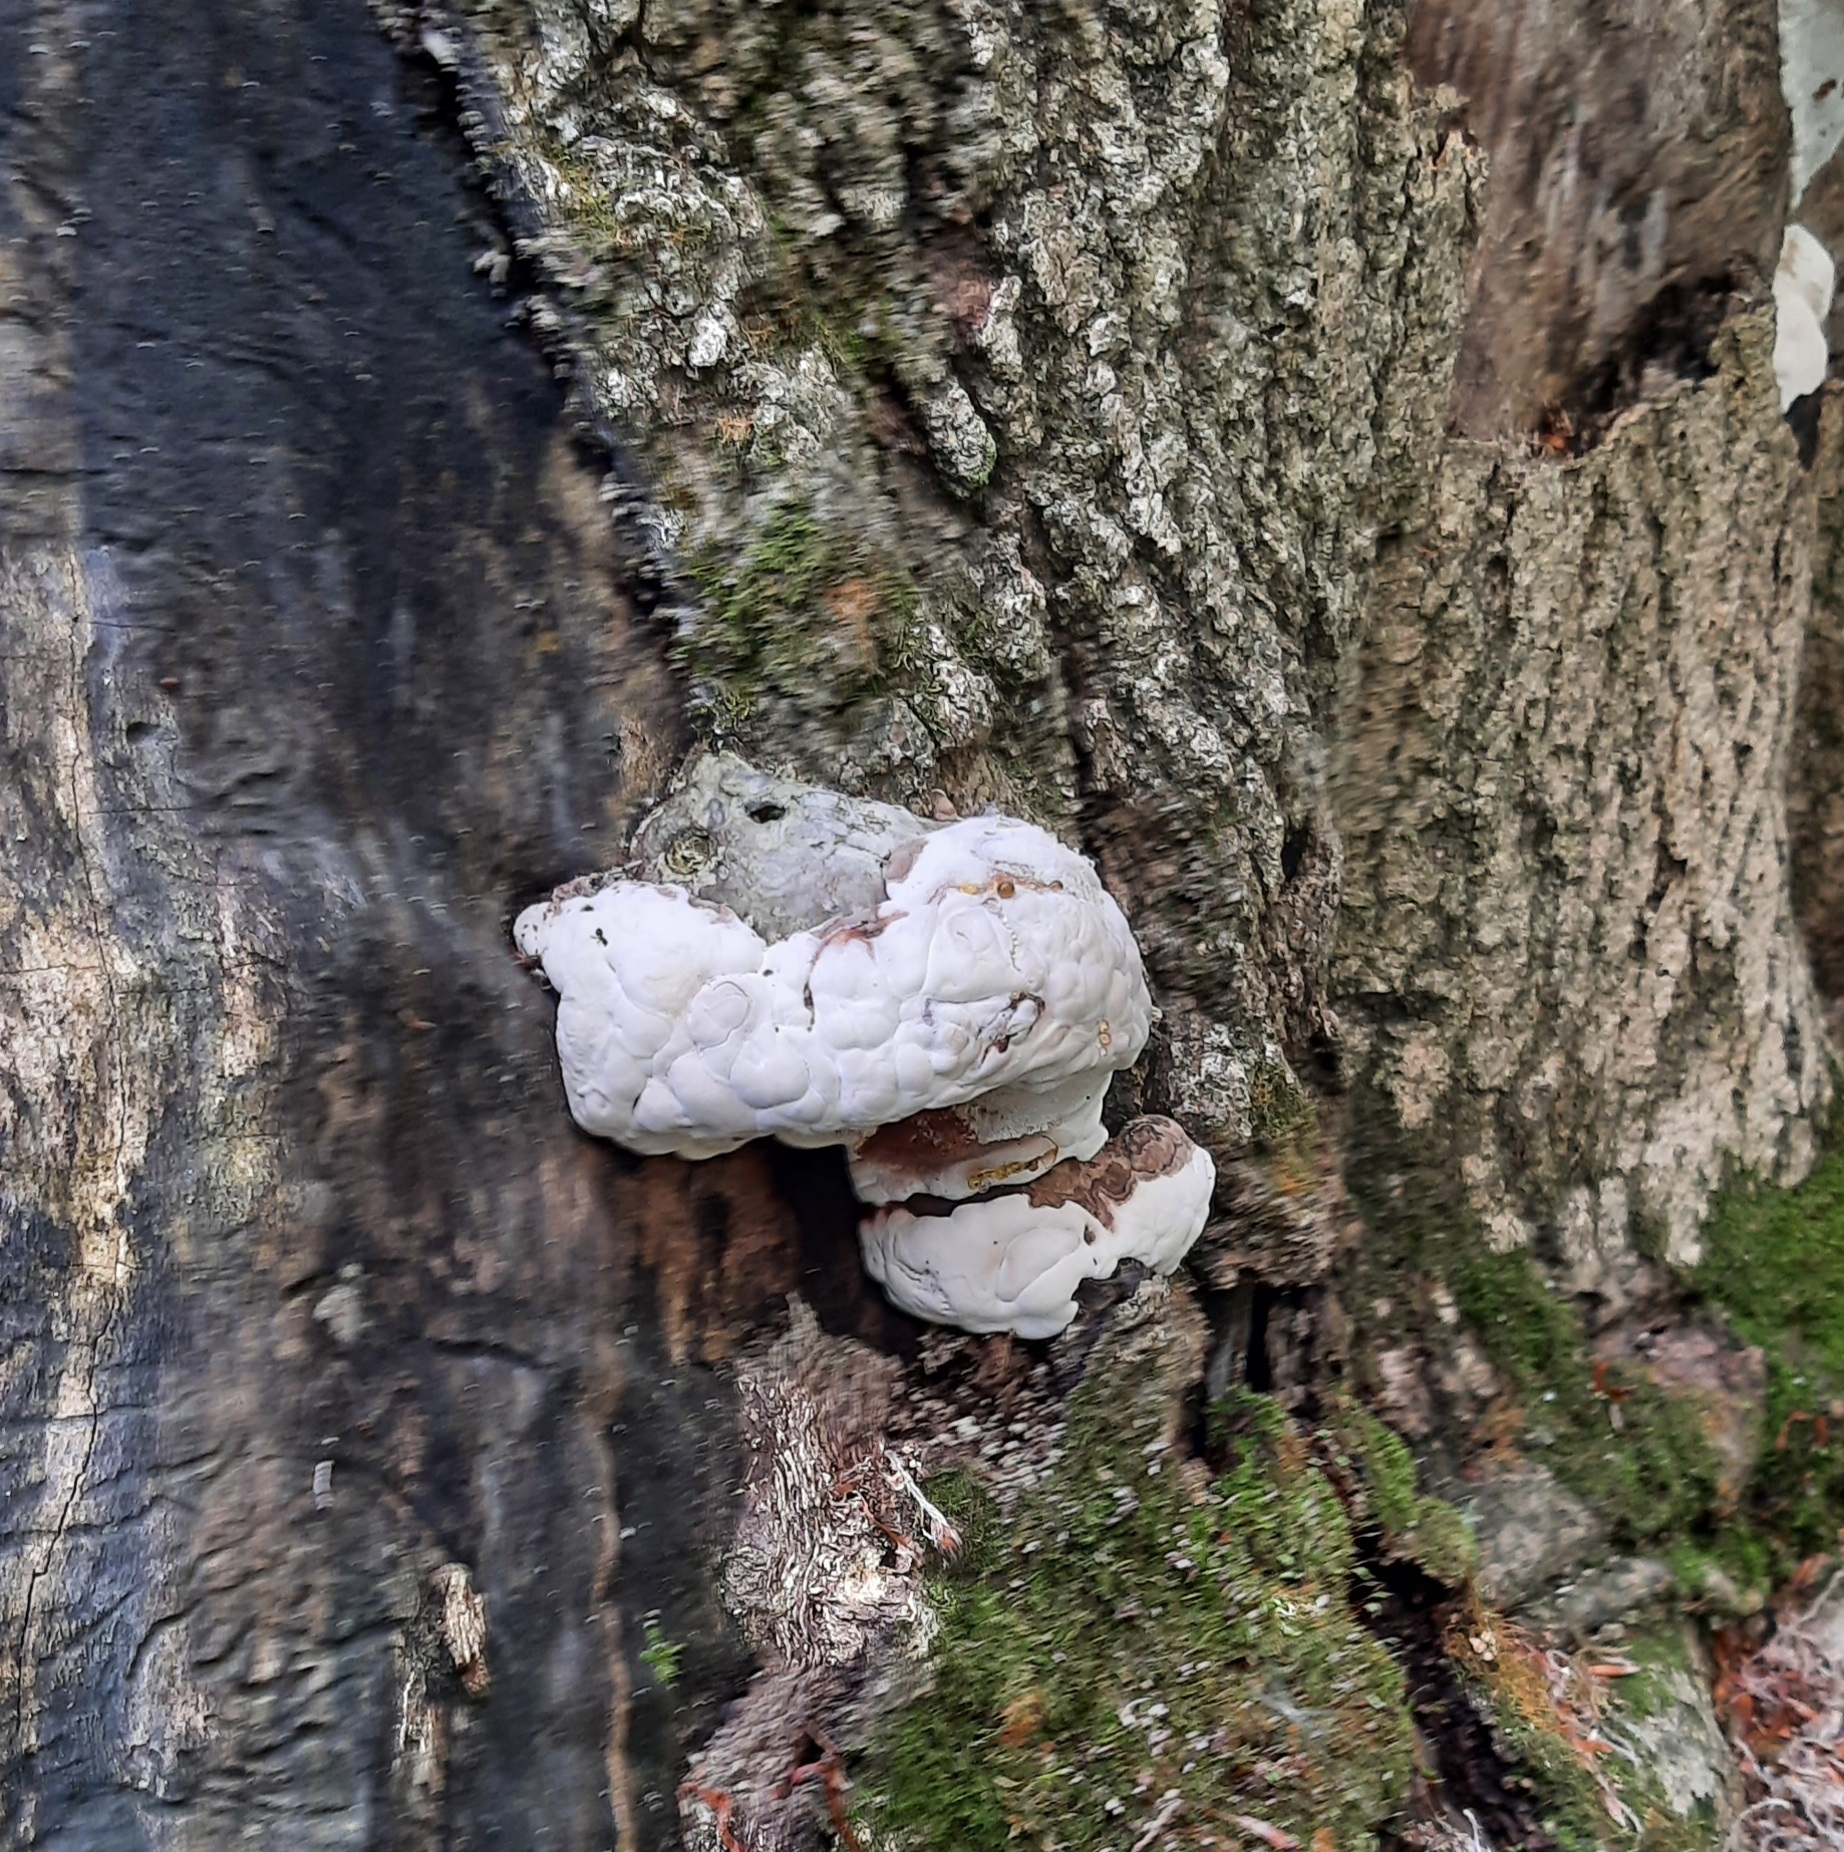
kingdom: Fungi
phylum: Basidiomycota
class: Agaricomycetes
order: Polyporales
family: Polyporaceae
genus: Ganoderma
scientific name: Ganoderma
